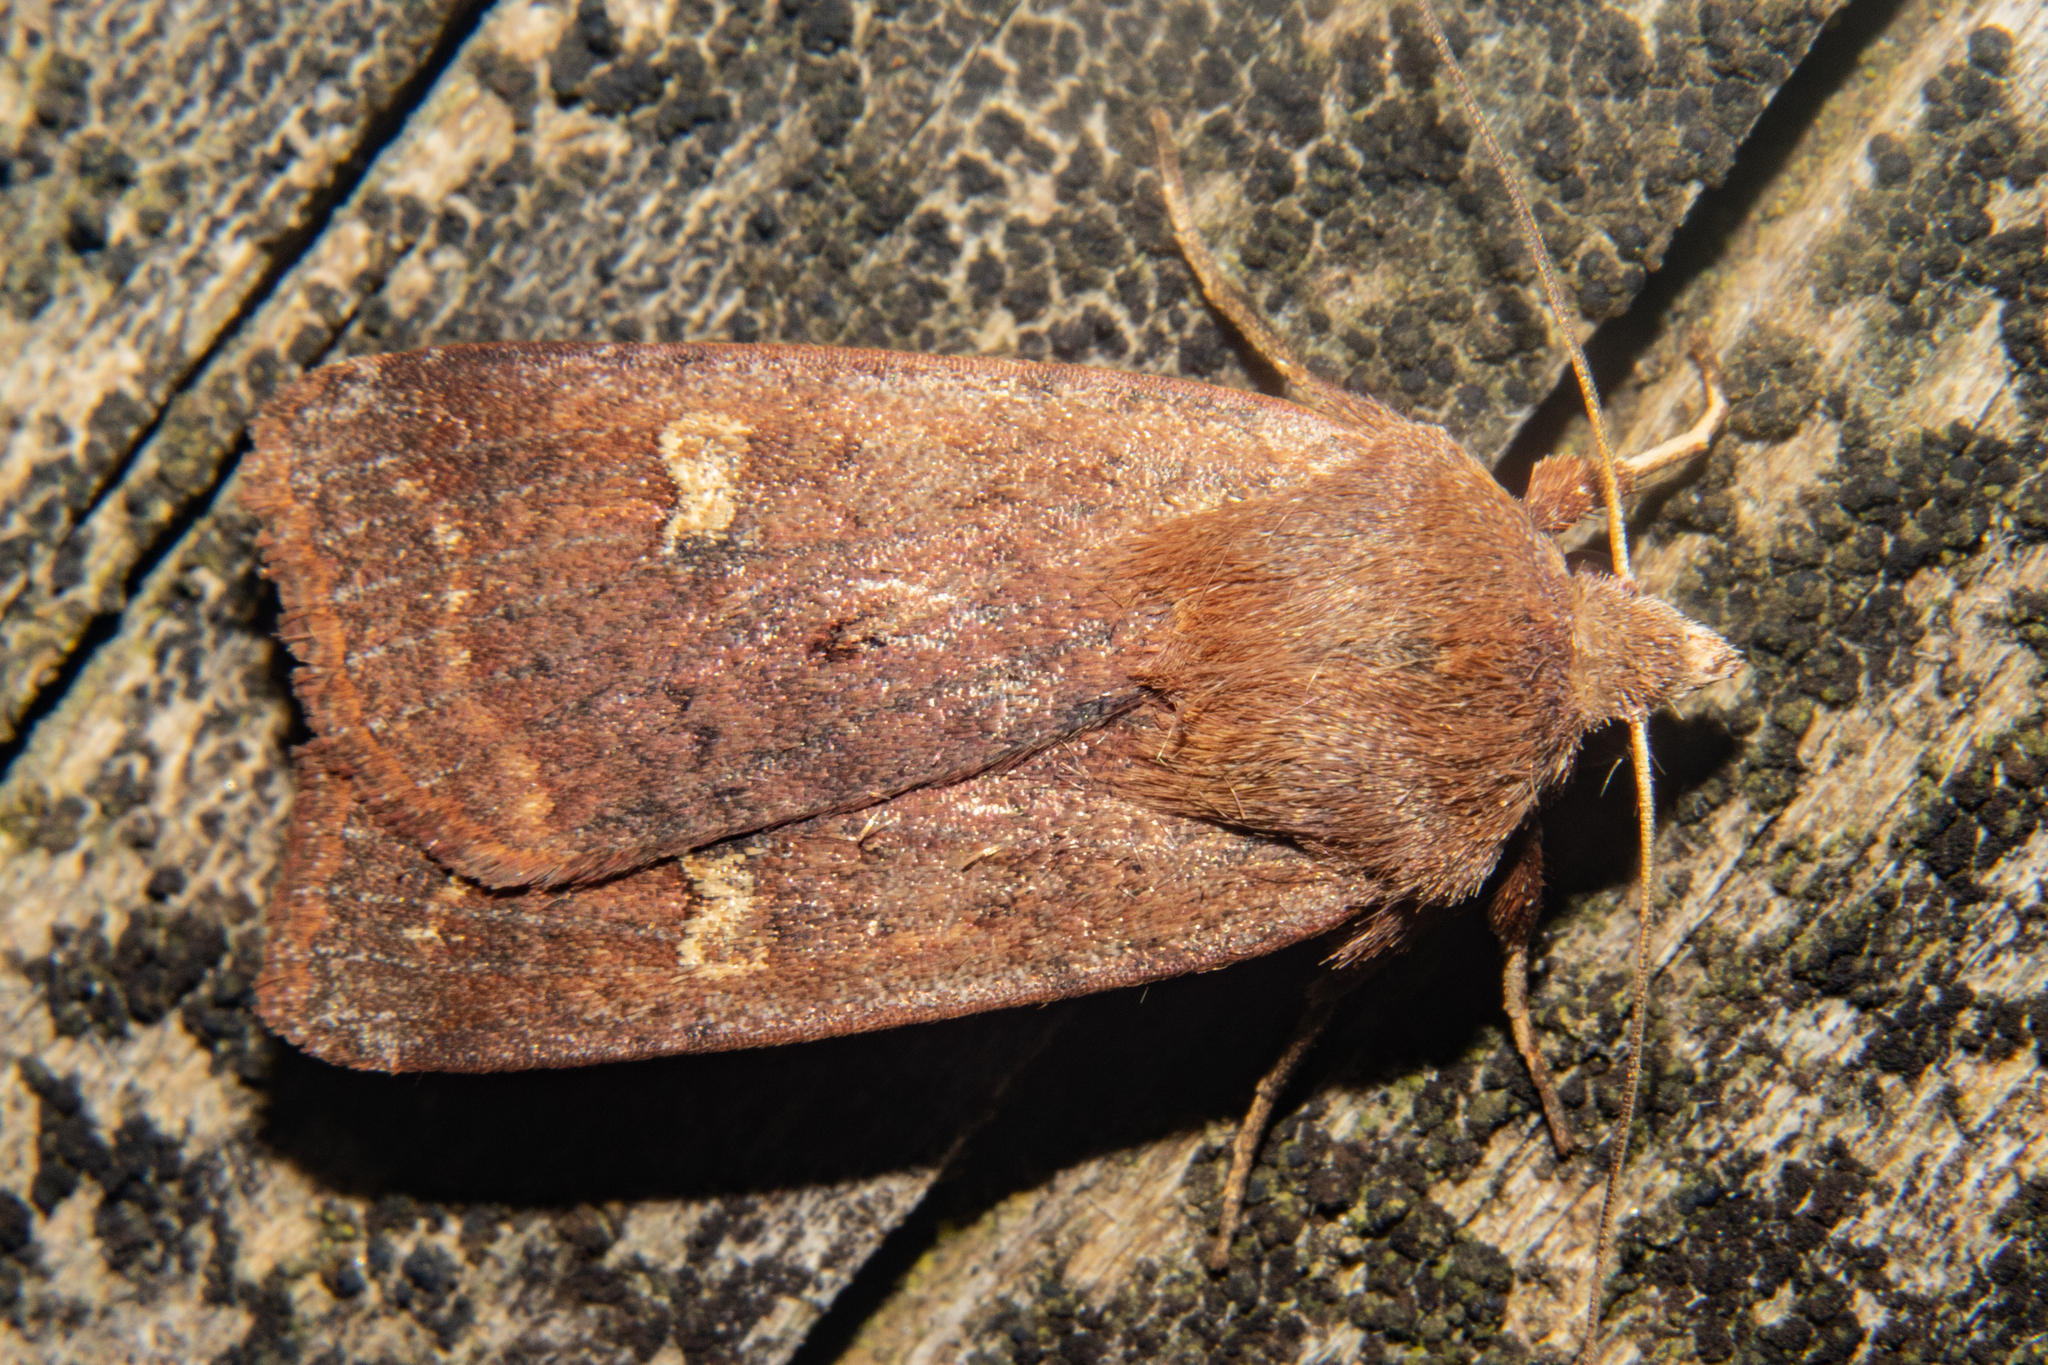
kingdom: Animalia
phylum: Arthropoda
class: Insecta
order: Lepidoptera
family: Noctuidae
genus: Diarsia
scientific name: Diarsia intermixta
